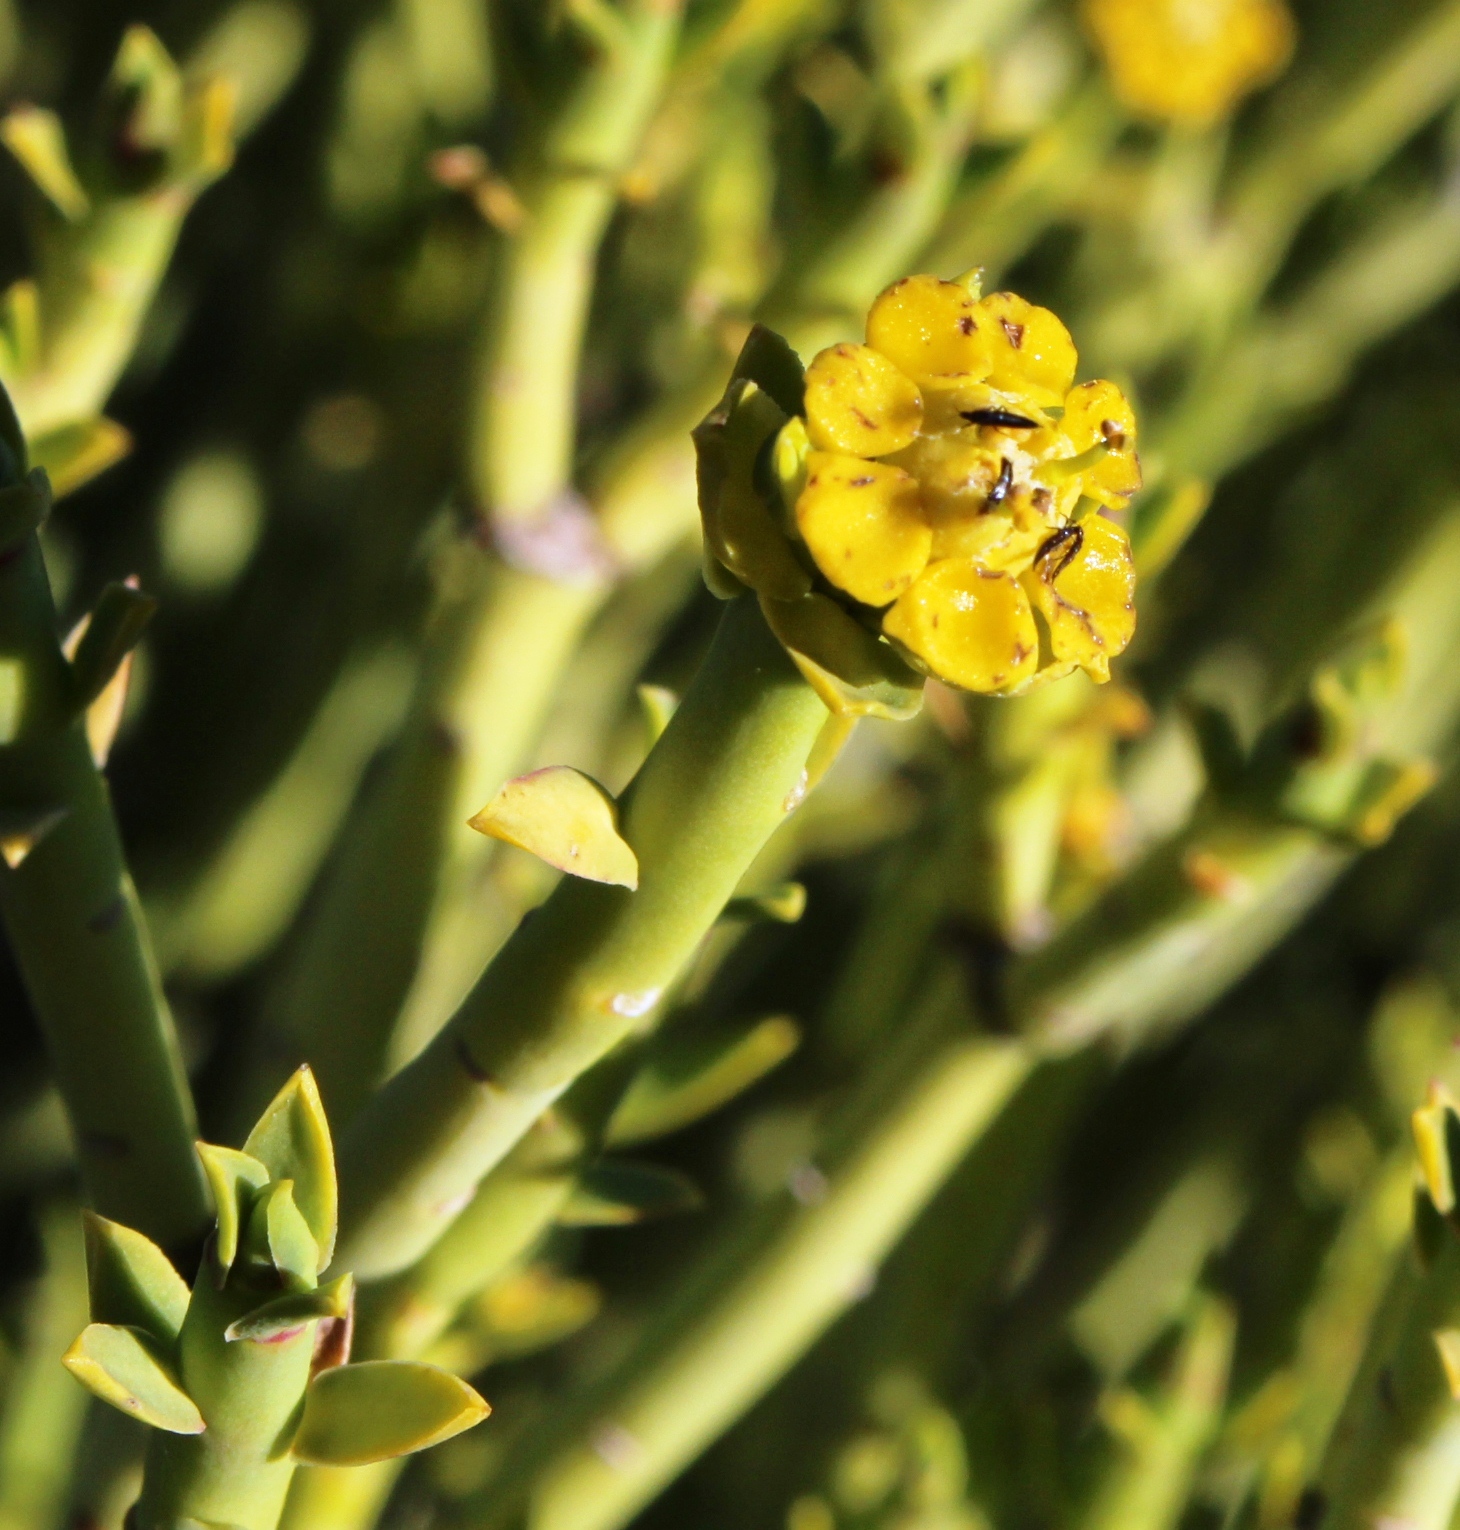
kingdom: Plantae
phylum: Tracheophyta
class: Magnoliopsida
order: Malpighiales
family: Euphorbiaceae
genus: Euphorbia
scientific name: Euphorbia mauritanica
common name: Jackal's-food
